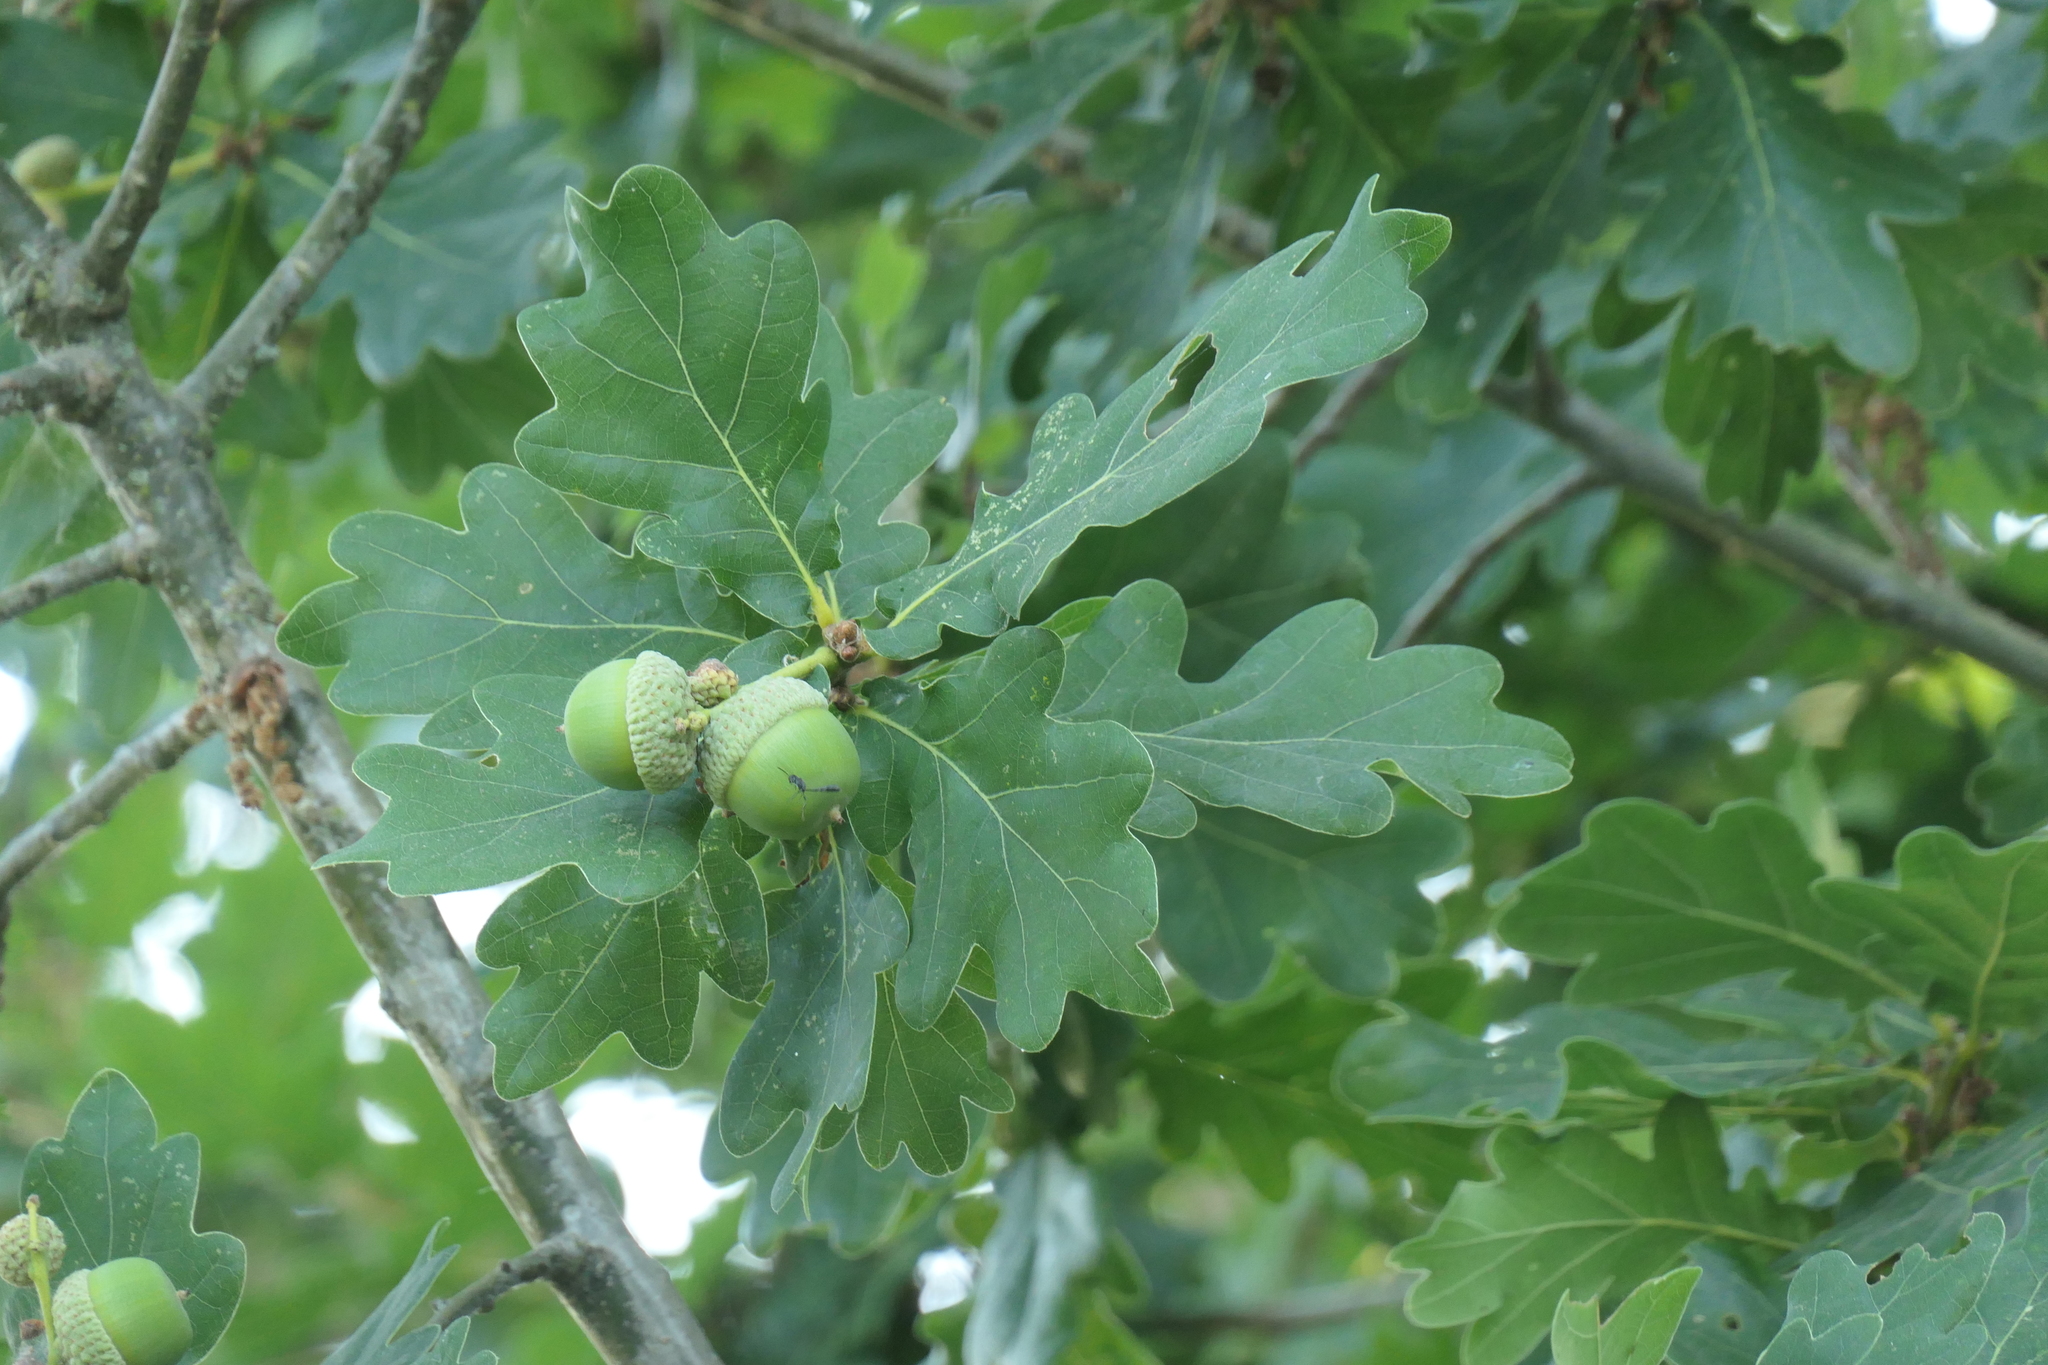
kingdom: Plantae
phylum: Tracheophyta
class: Magnoliopsida
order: Fagales
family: Fagaceae
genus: Quercus
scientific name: Quercus robur
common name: Pedunculate oak
